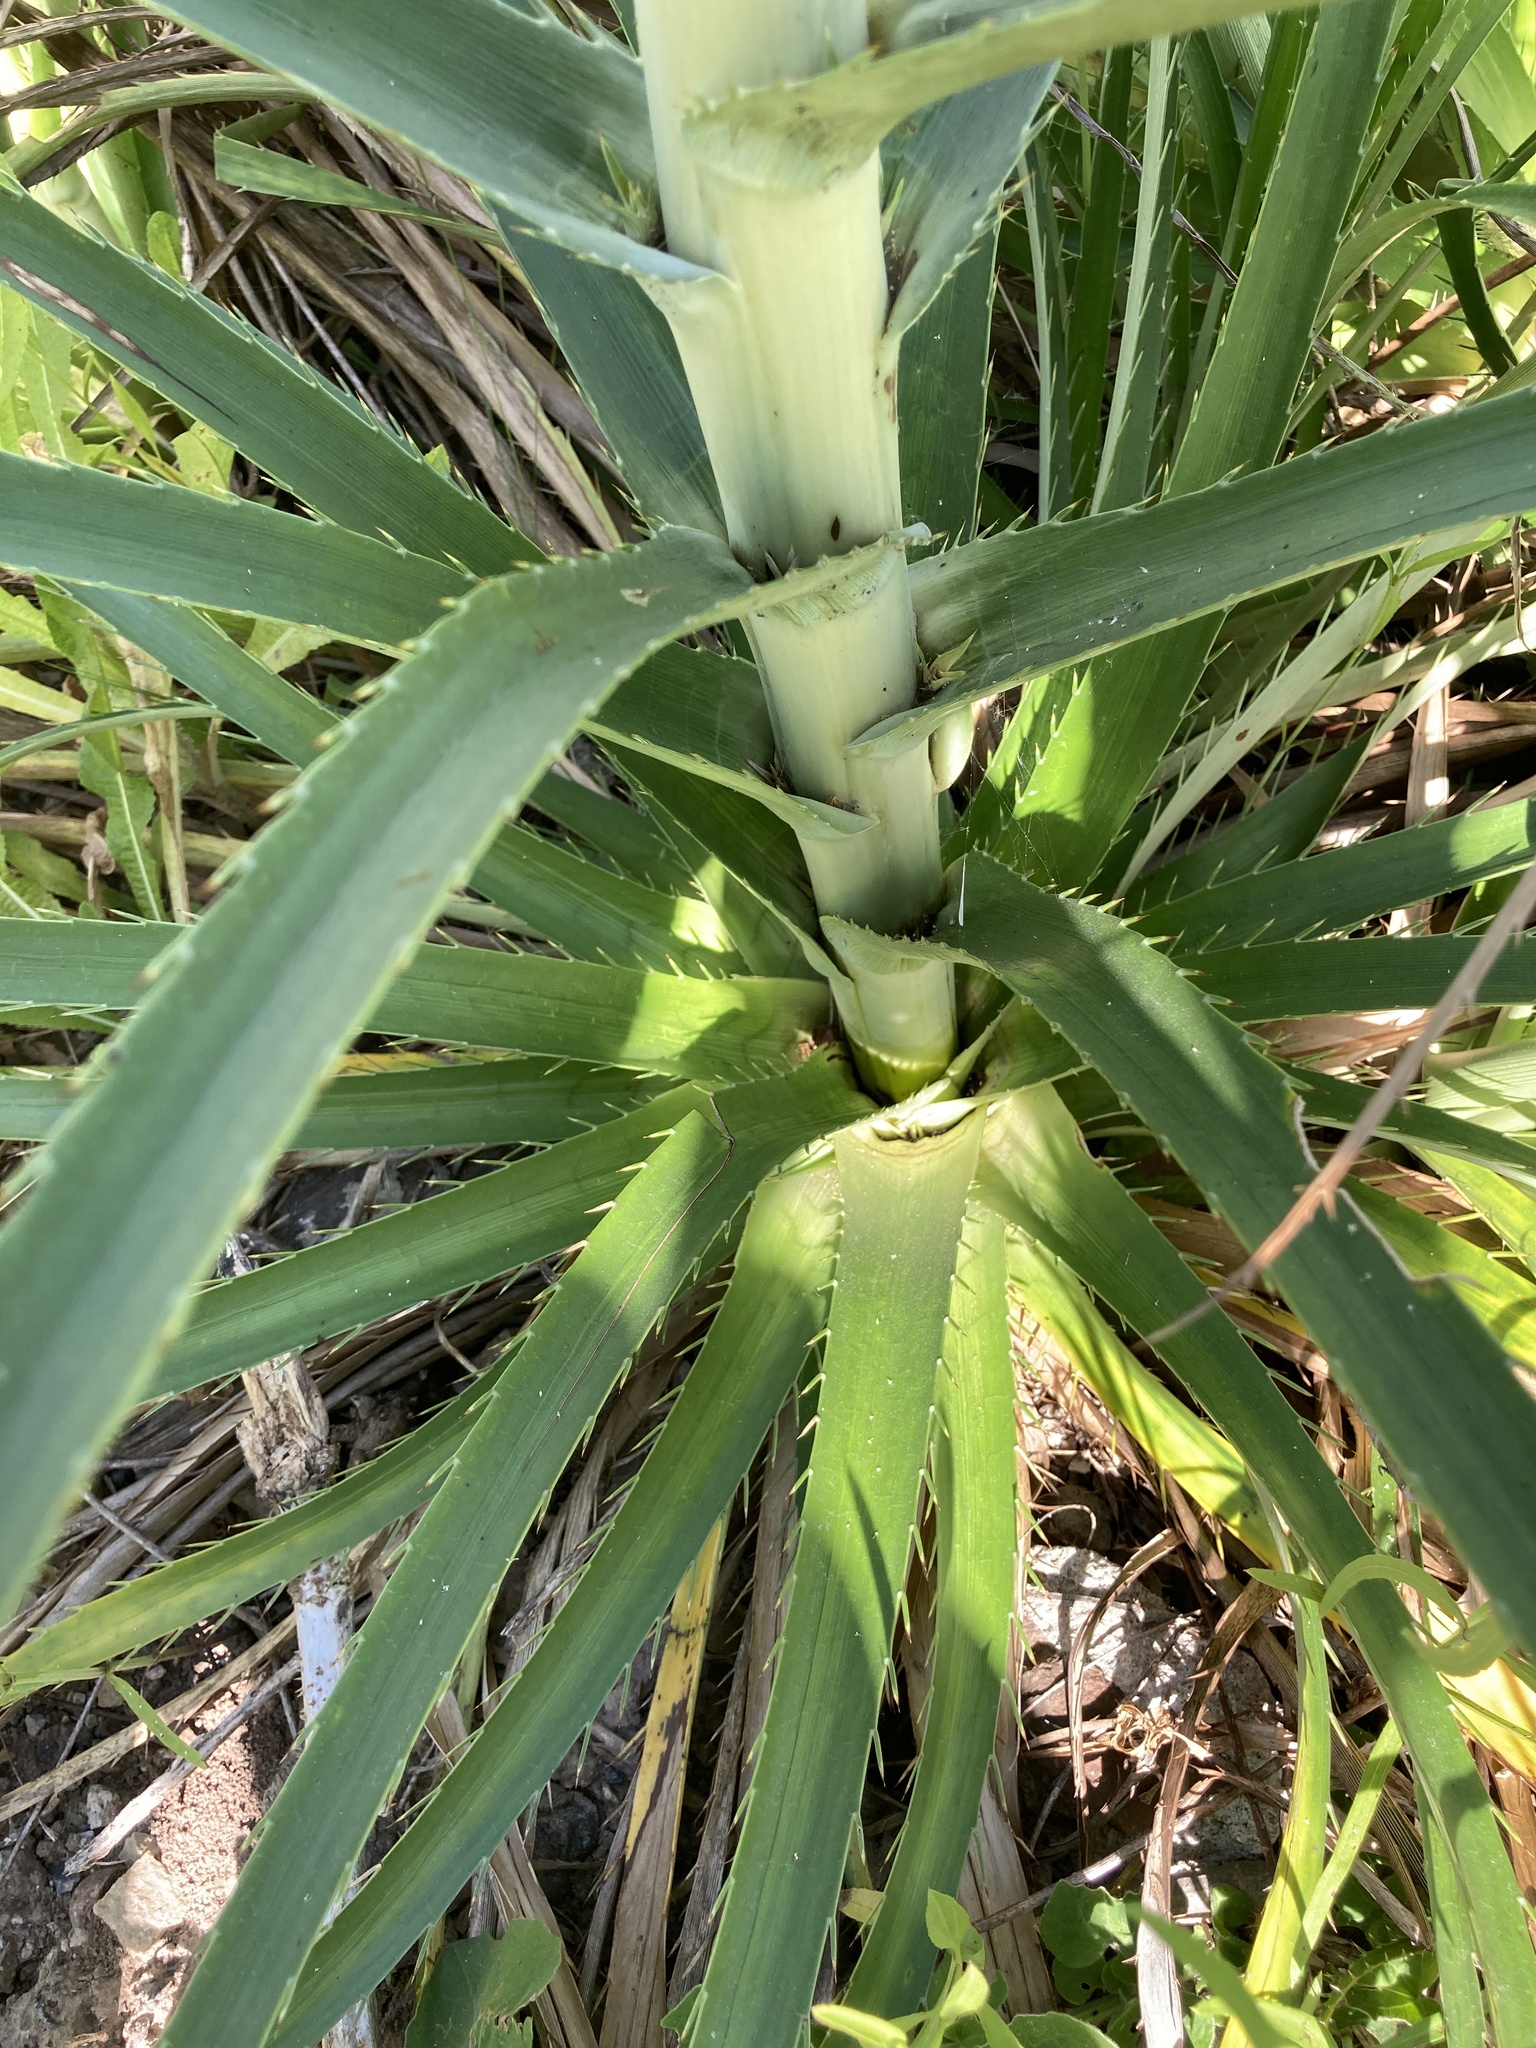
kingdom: Plantae
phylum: Tracheophyta
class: Magnoliopsida
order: Apiales
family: Apiaceae
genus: Eryngium
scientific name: Eryngium horridum
